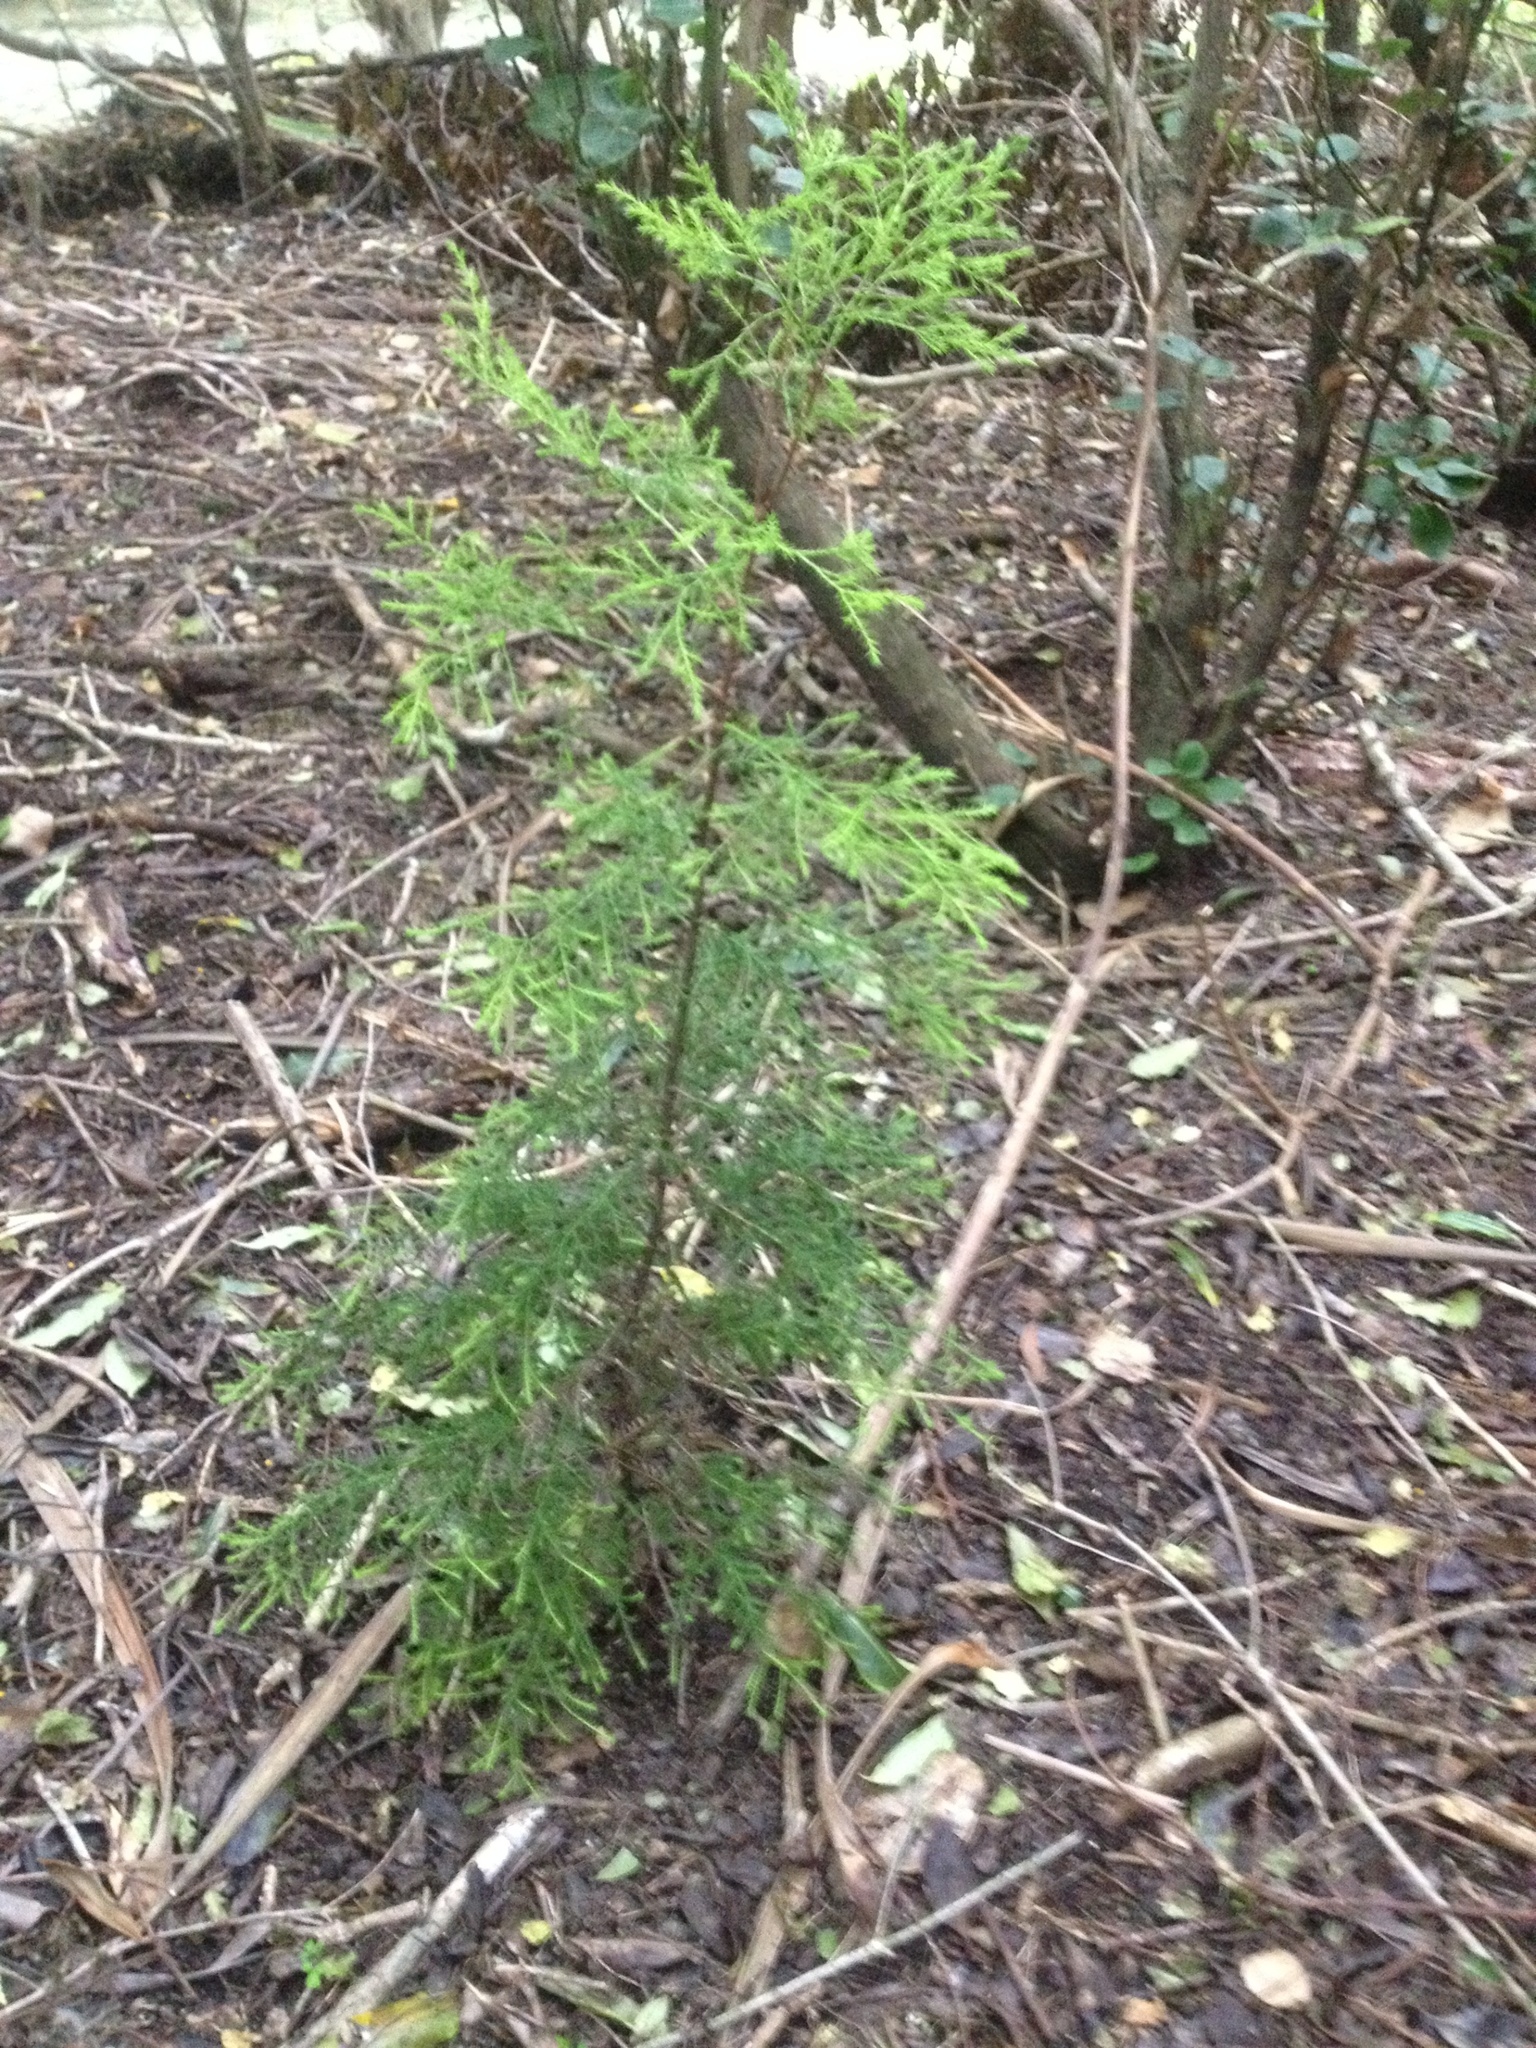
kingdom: Plantae
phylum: Tracheophyta
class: Pinopsida
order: Pinales
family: Cupressaceae
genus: Cupressus
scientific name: Cupressus macrocarpa
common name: Monterey cypress
